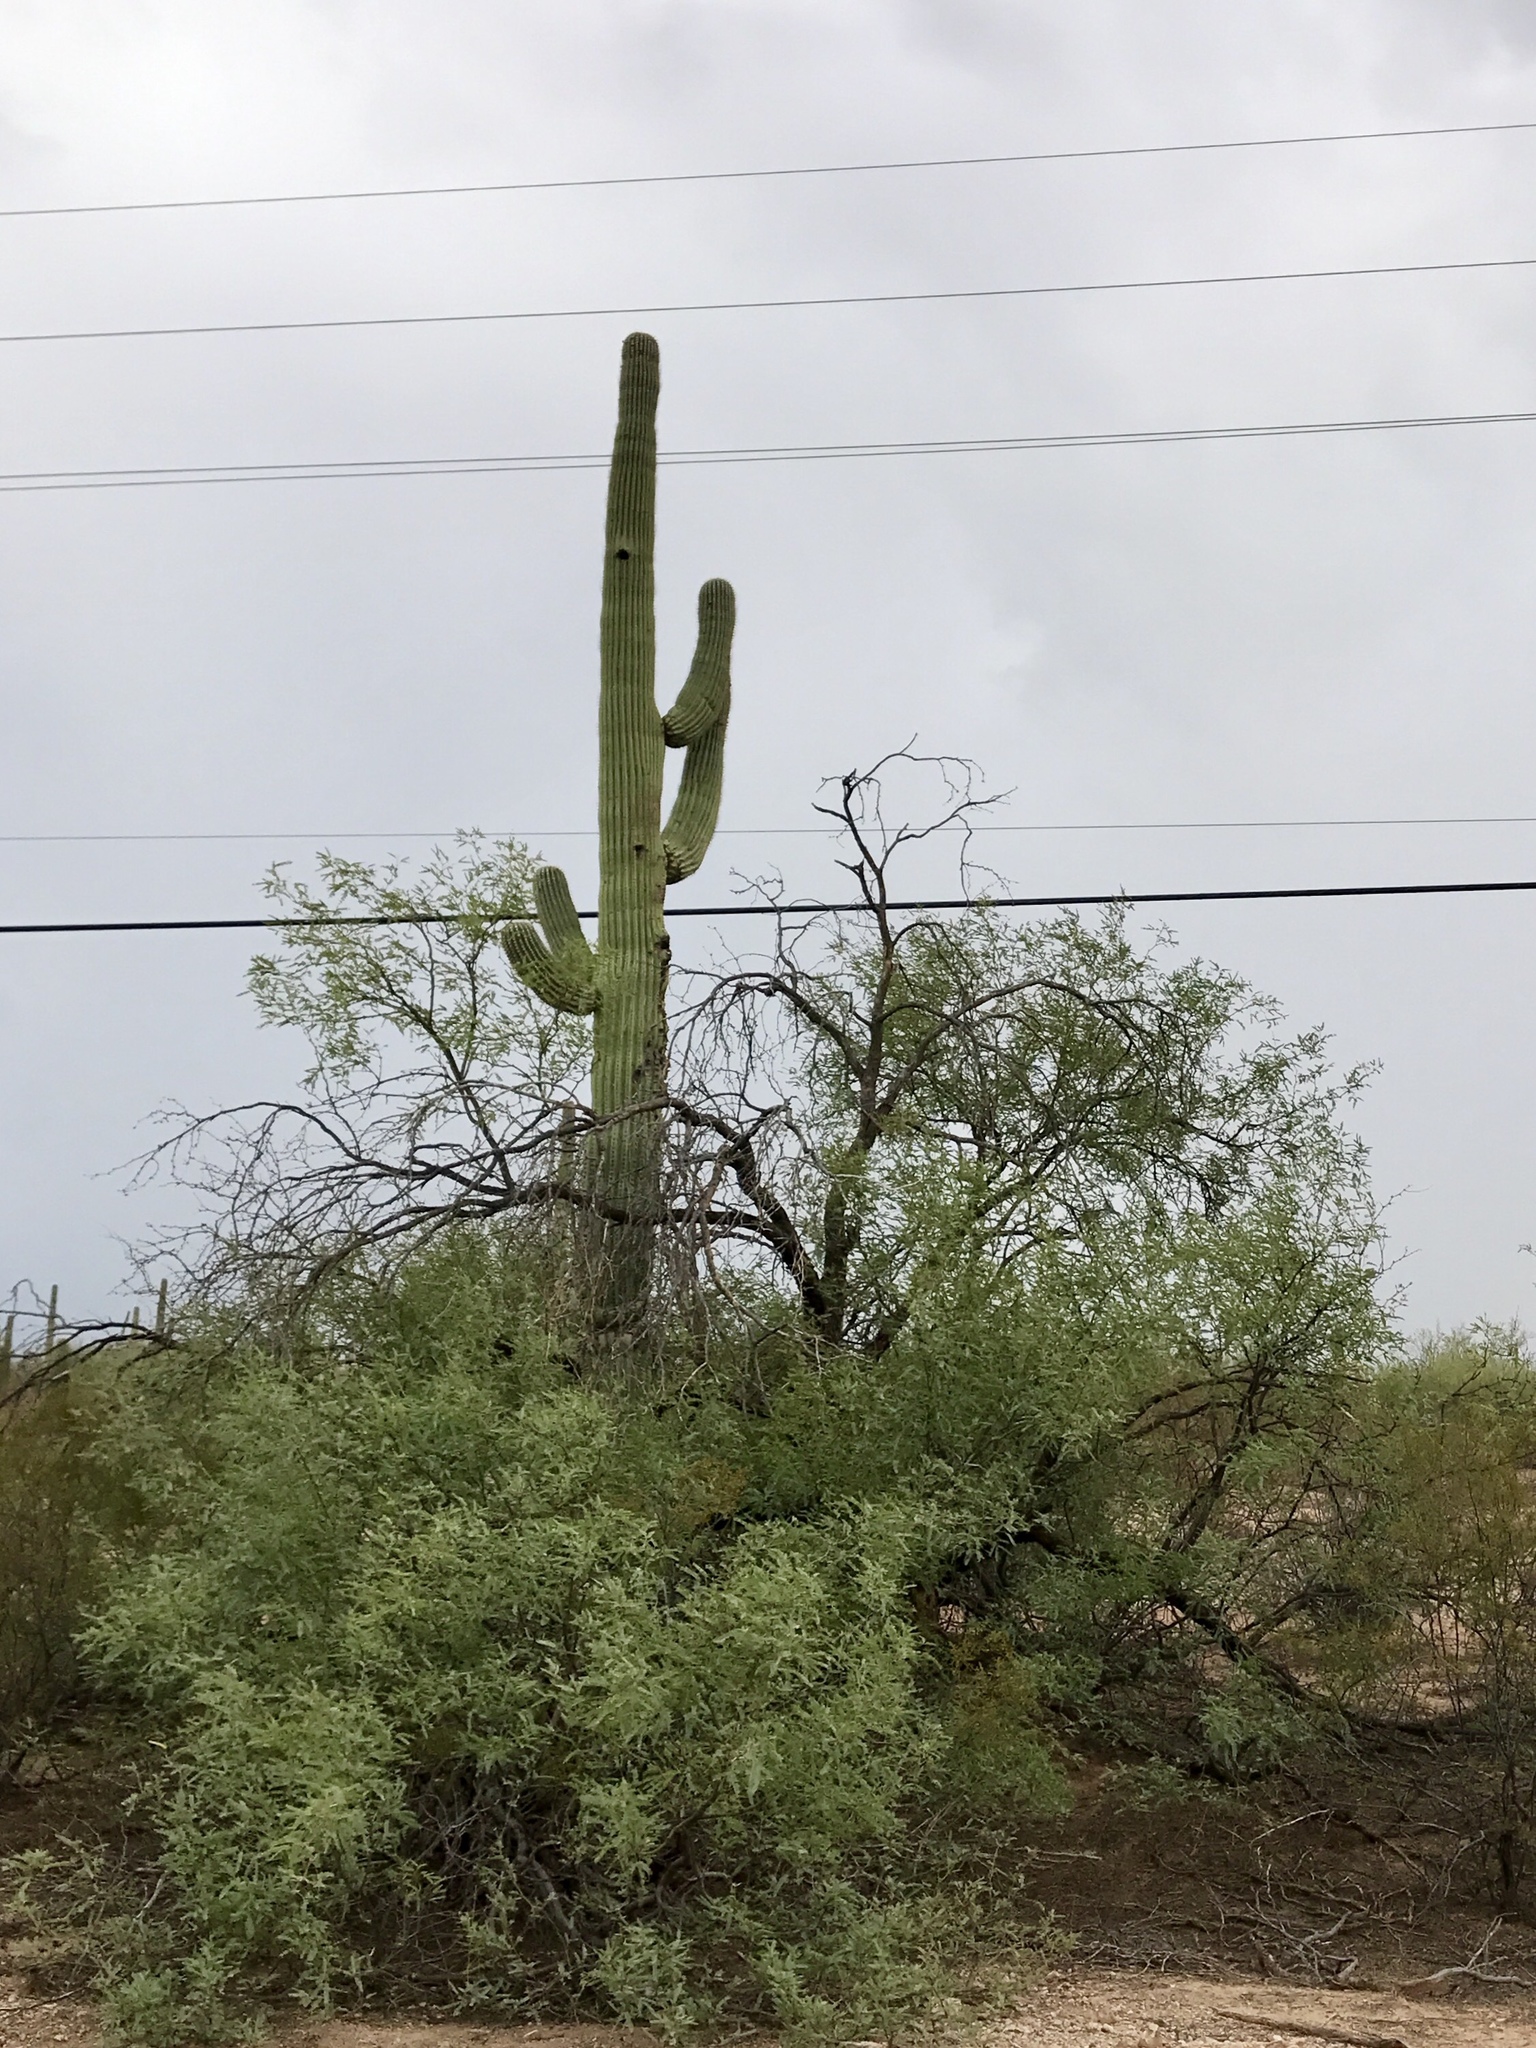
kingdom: Plantae
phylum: Tracheophyta
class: Magnoliopsida
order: Caryophyllales
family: Cactaceae
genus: Carnegiea
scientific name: Carnegiea gigantea
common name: Saguaro
